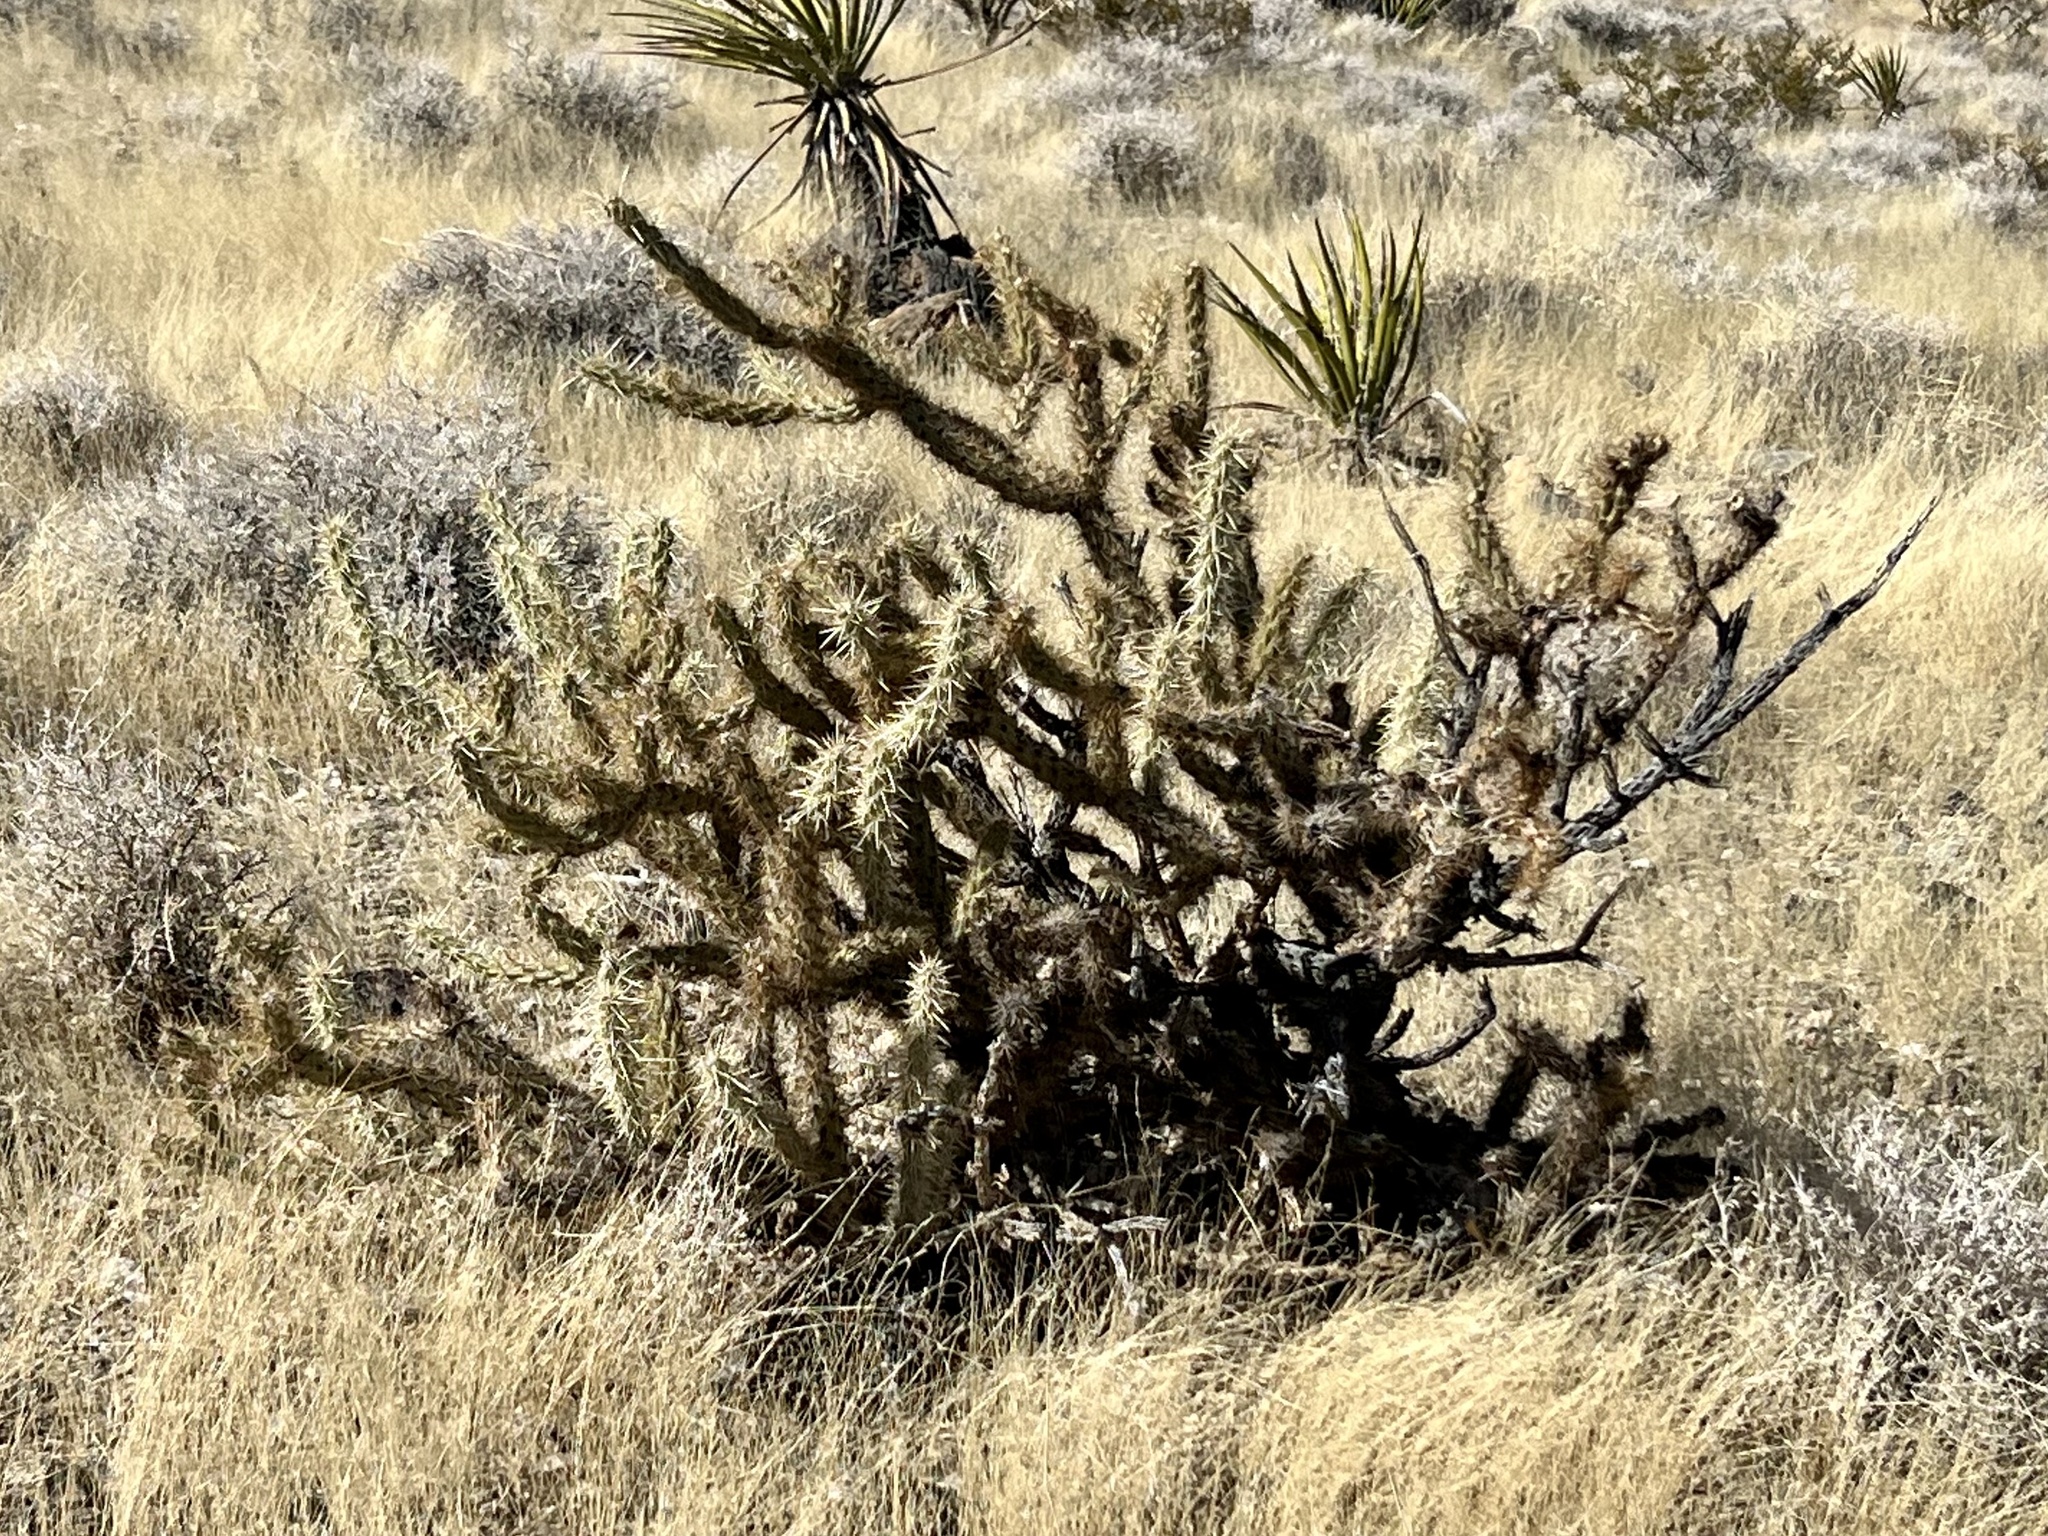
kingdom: Plantae
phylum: Tracheophyta
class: Magnoliopsida
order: Caryophyllales
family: Cactaceae
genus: Cylindropuntia
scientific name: Cylindropuntia acanthocarpa
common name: Buckhorn cholla
